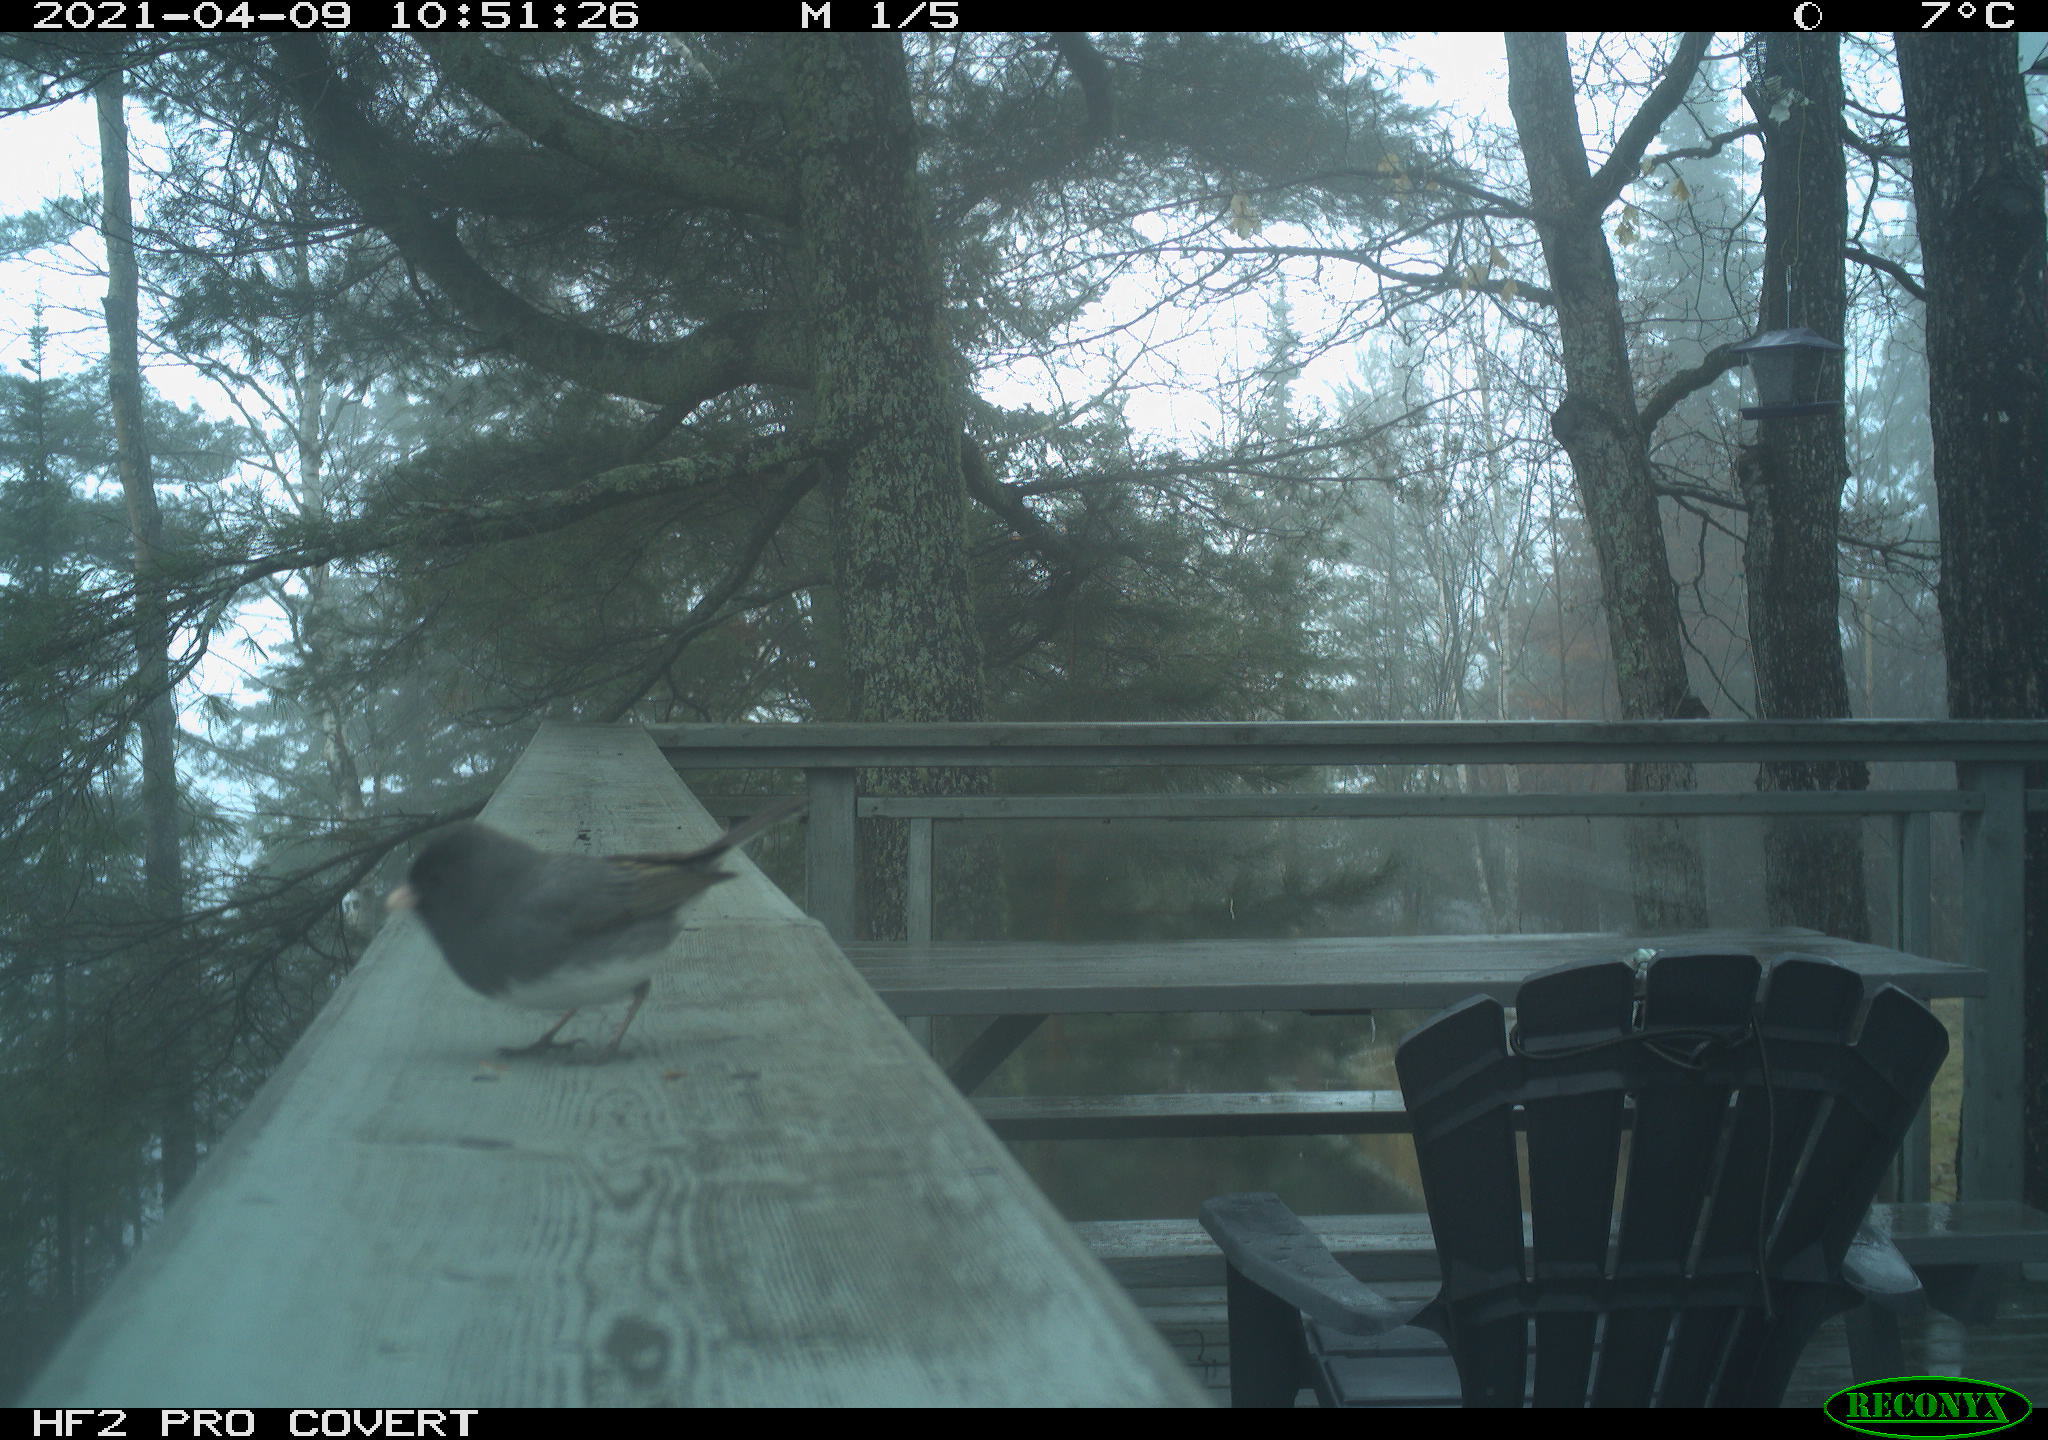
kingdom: Animalia
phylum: Chordata
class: Aves
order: Passeriformes
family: Passerellidae
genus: Junco
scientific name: Junco hyemalis
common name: Dark-eyed junco
